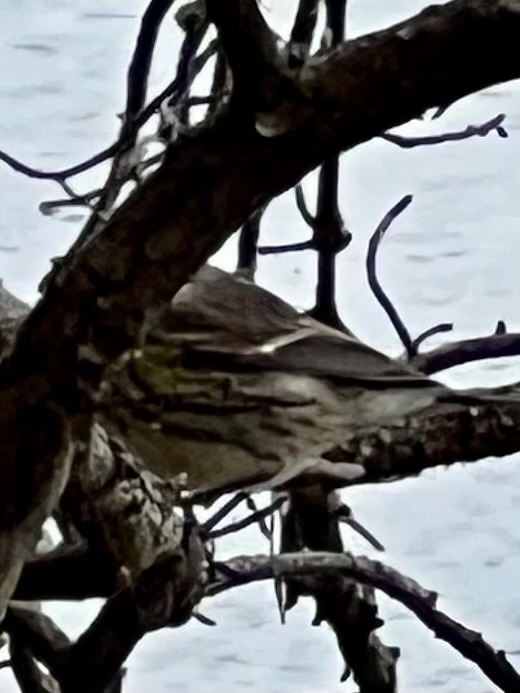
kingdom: Animalia
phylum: Chordata
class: Aves
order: Passeriformes
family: Parulidae
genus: Setophaga
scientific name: Setophaga coronata
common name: Myrtle warbler
